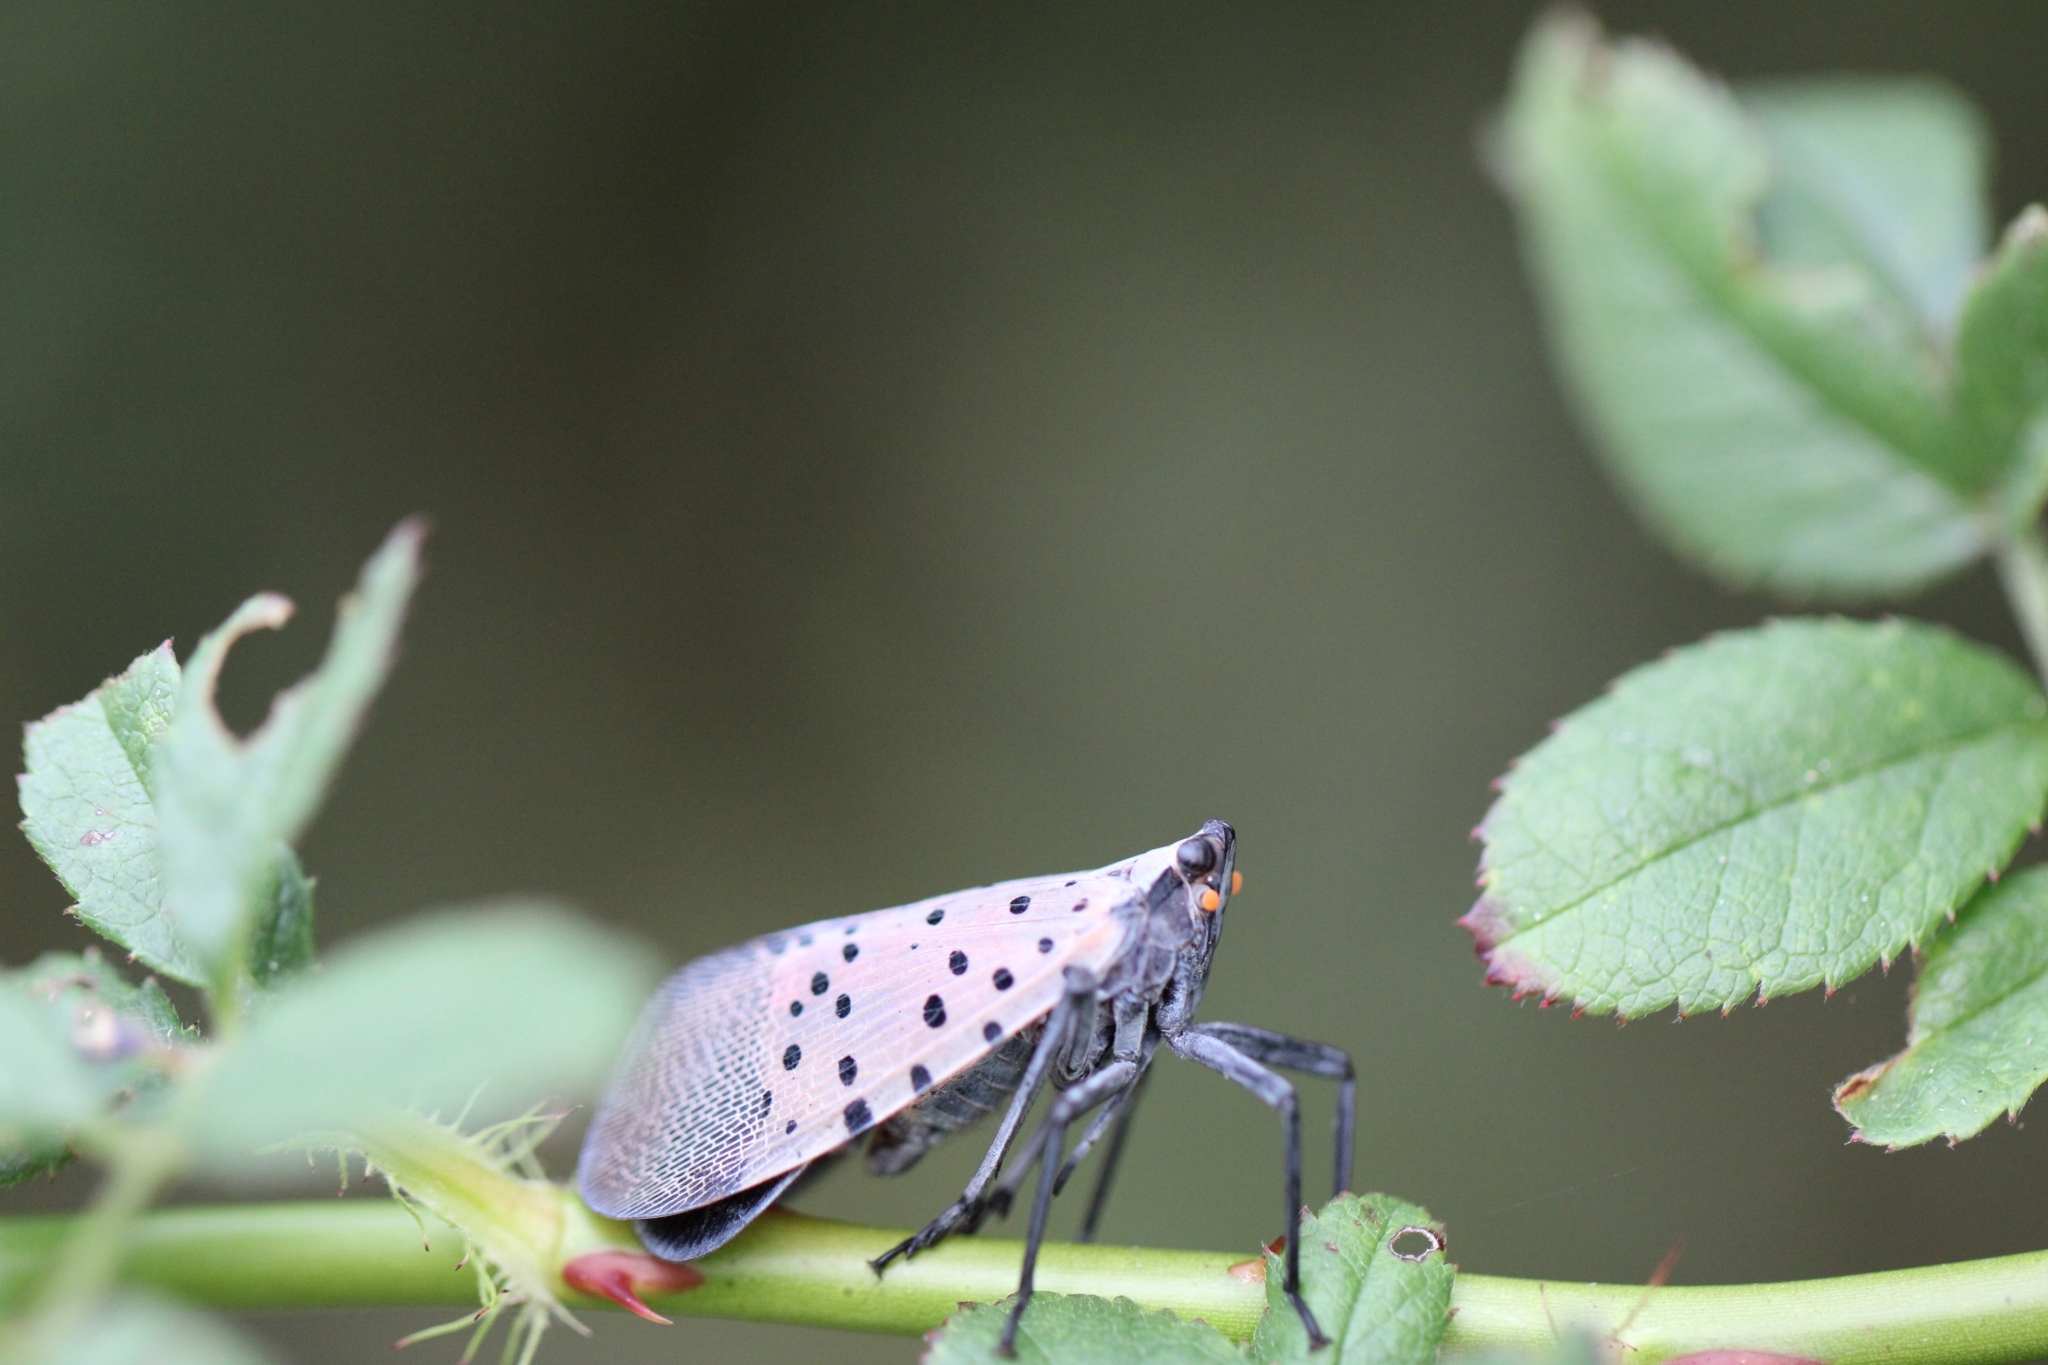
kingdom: Animalia
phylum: Arthropoda
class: Insecta
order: Hemiptera
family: Fulgoridae
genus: Lycorma
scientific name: Lycorma delicatula
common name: Spotted lanternfly
